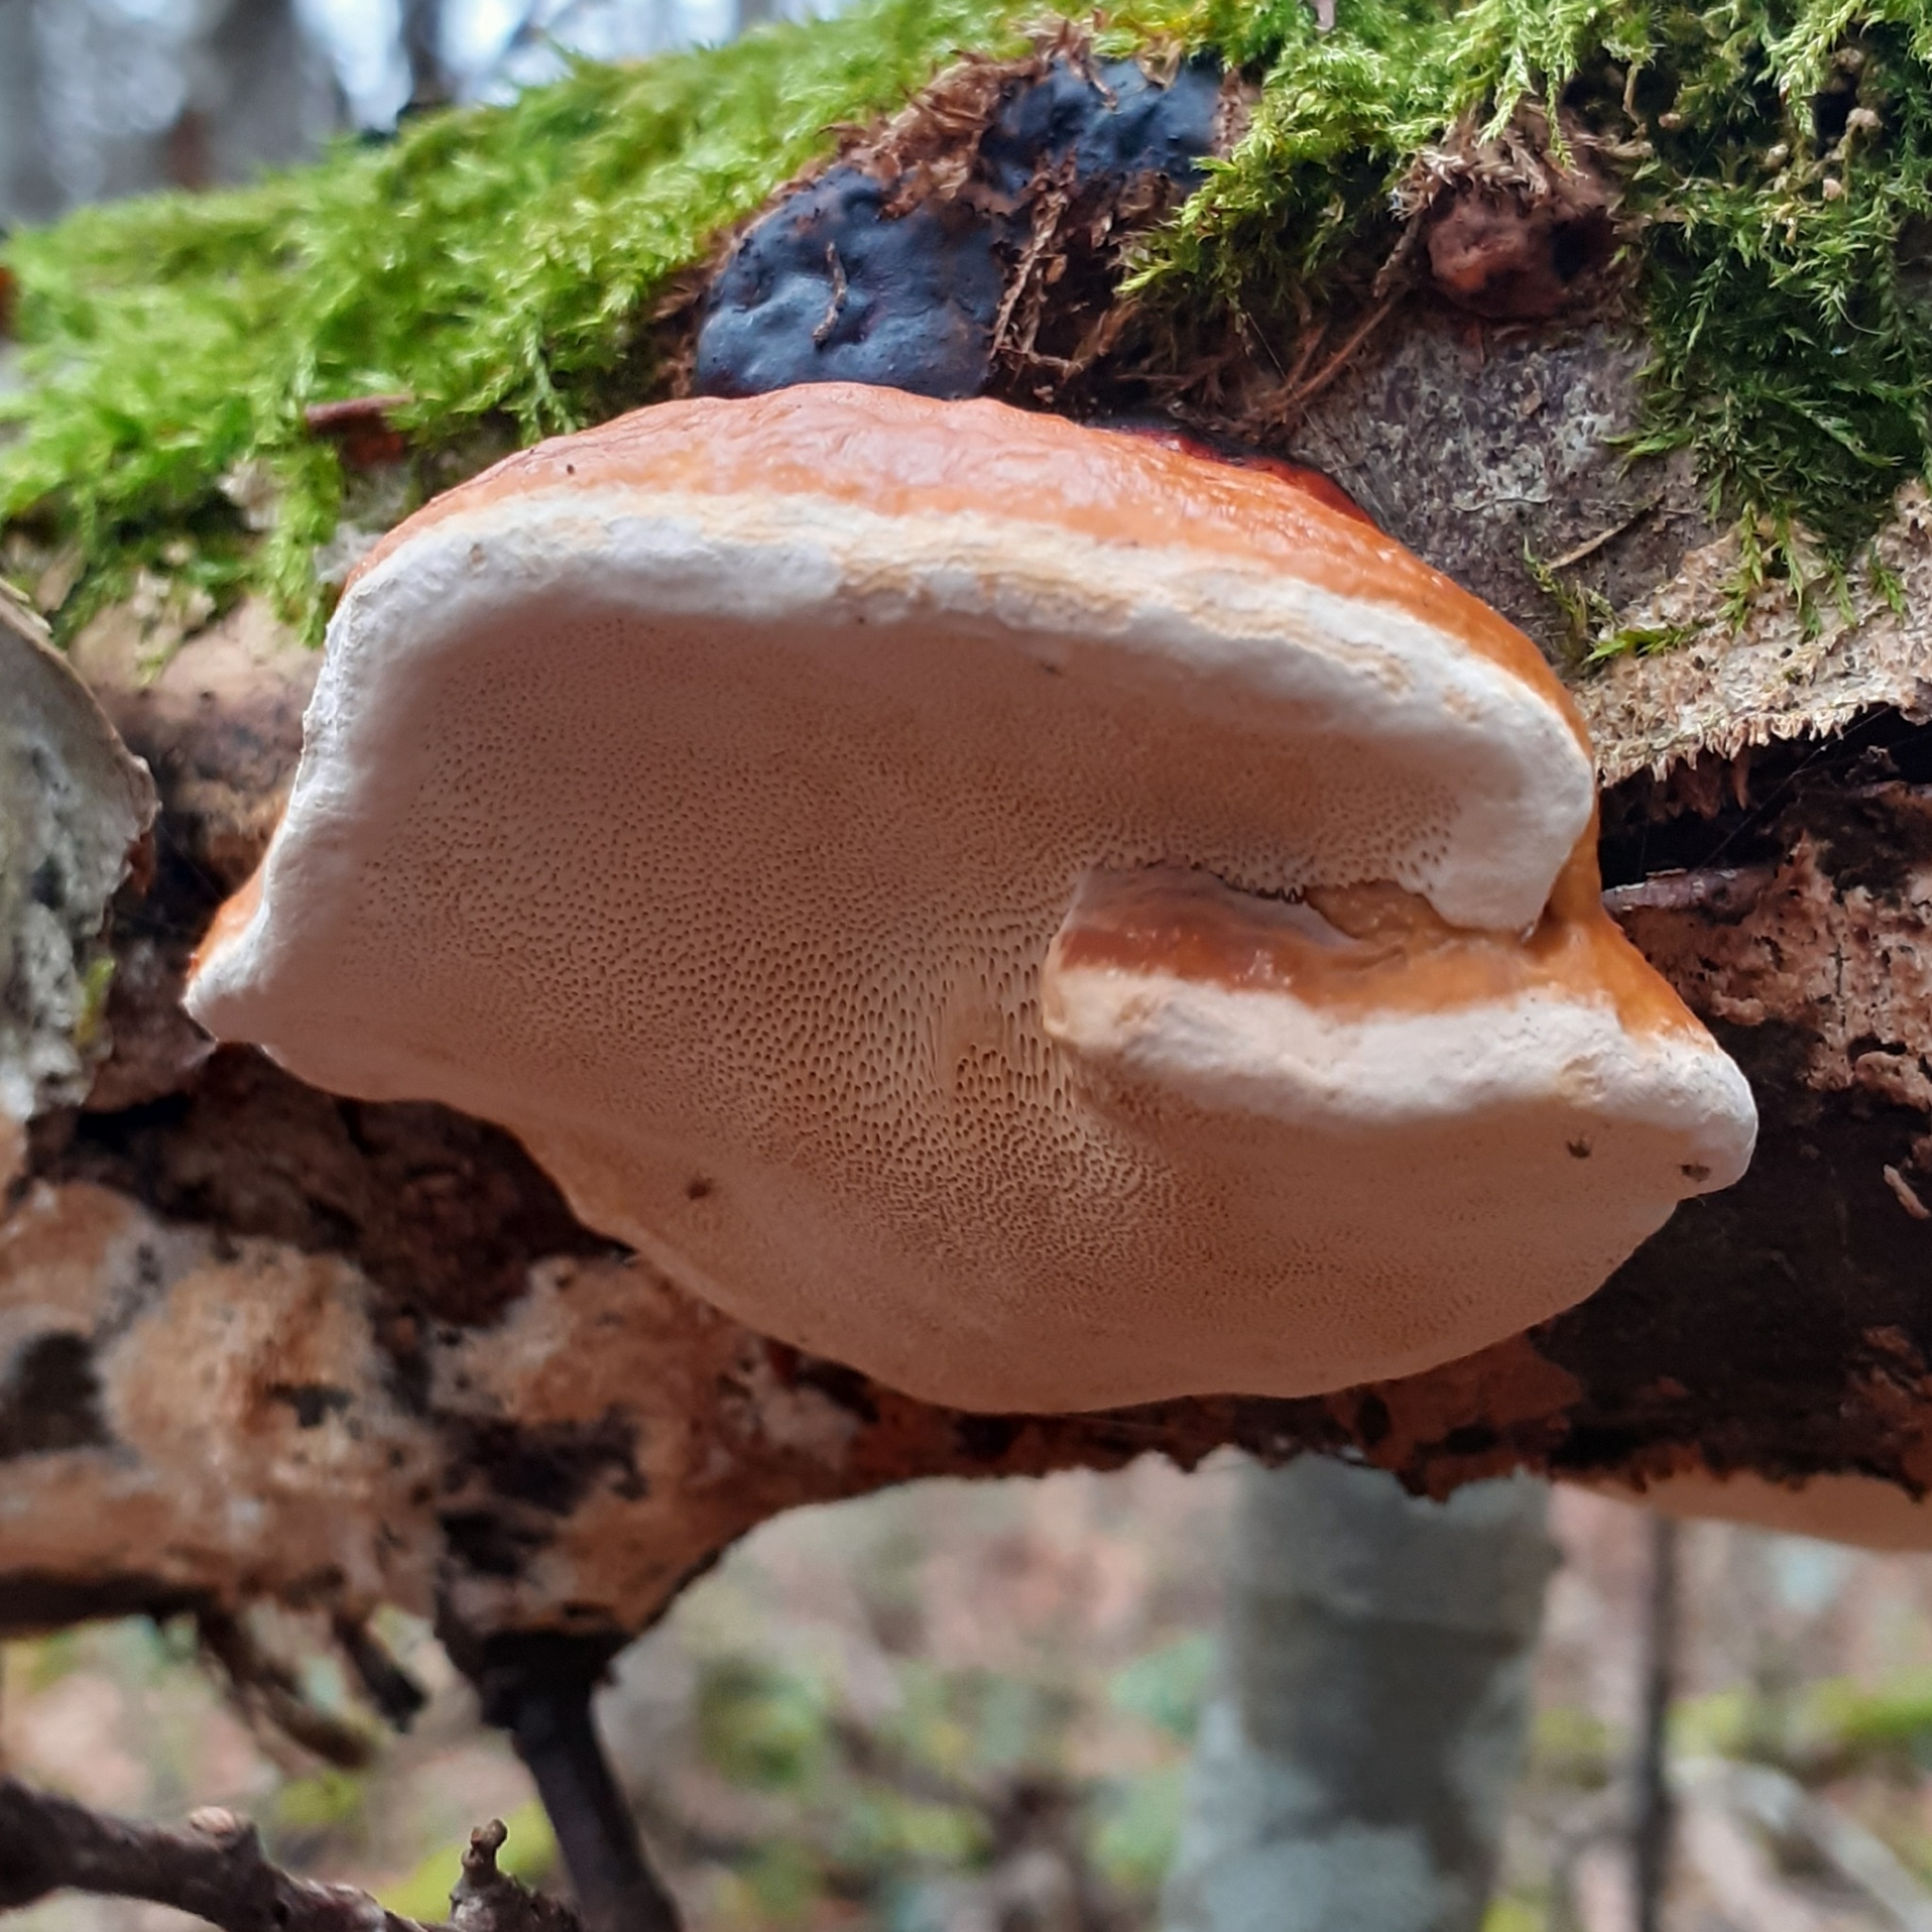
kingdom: Fungi
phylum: Basidiomycota
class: Agaricomycetes
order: Polyporales
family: Fomitopsidaceae
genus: Fomitopsis
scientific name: Fomitopsis pinicola
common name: Red-belted bracket
